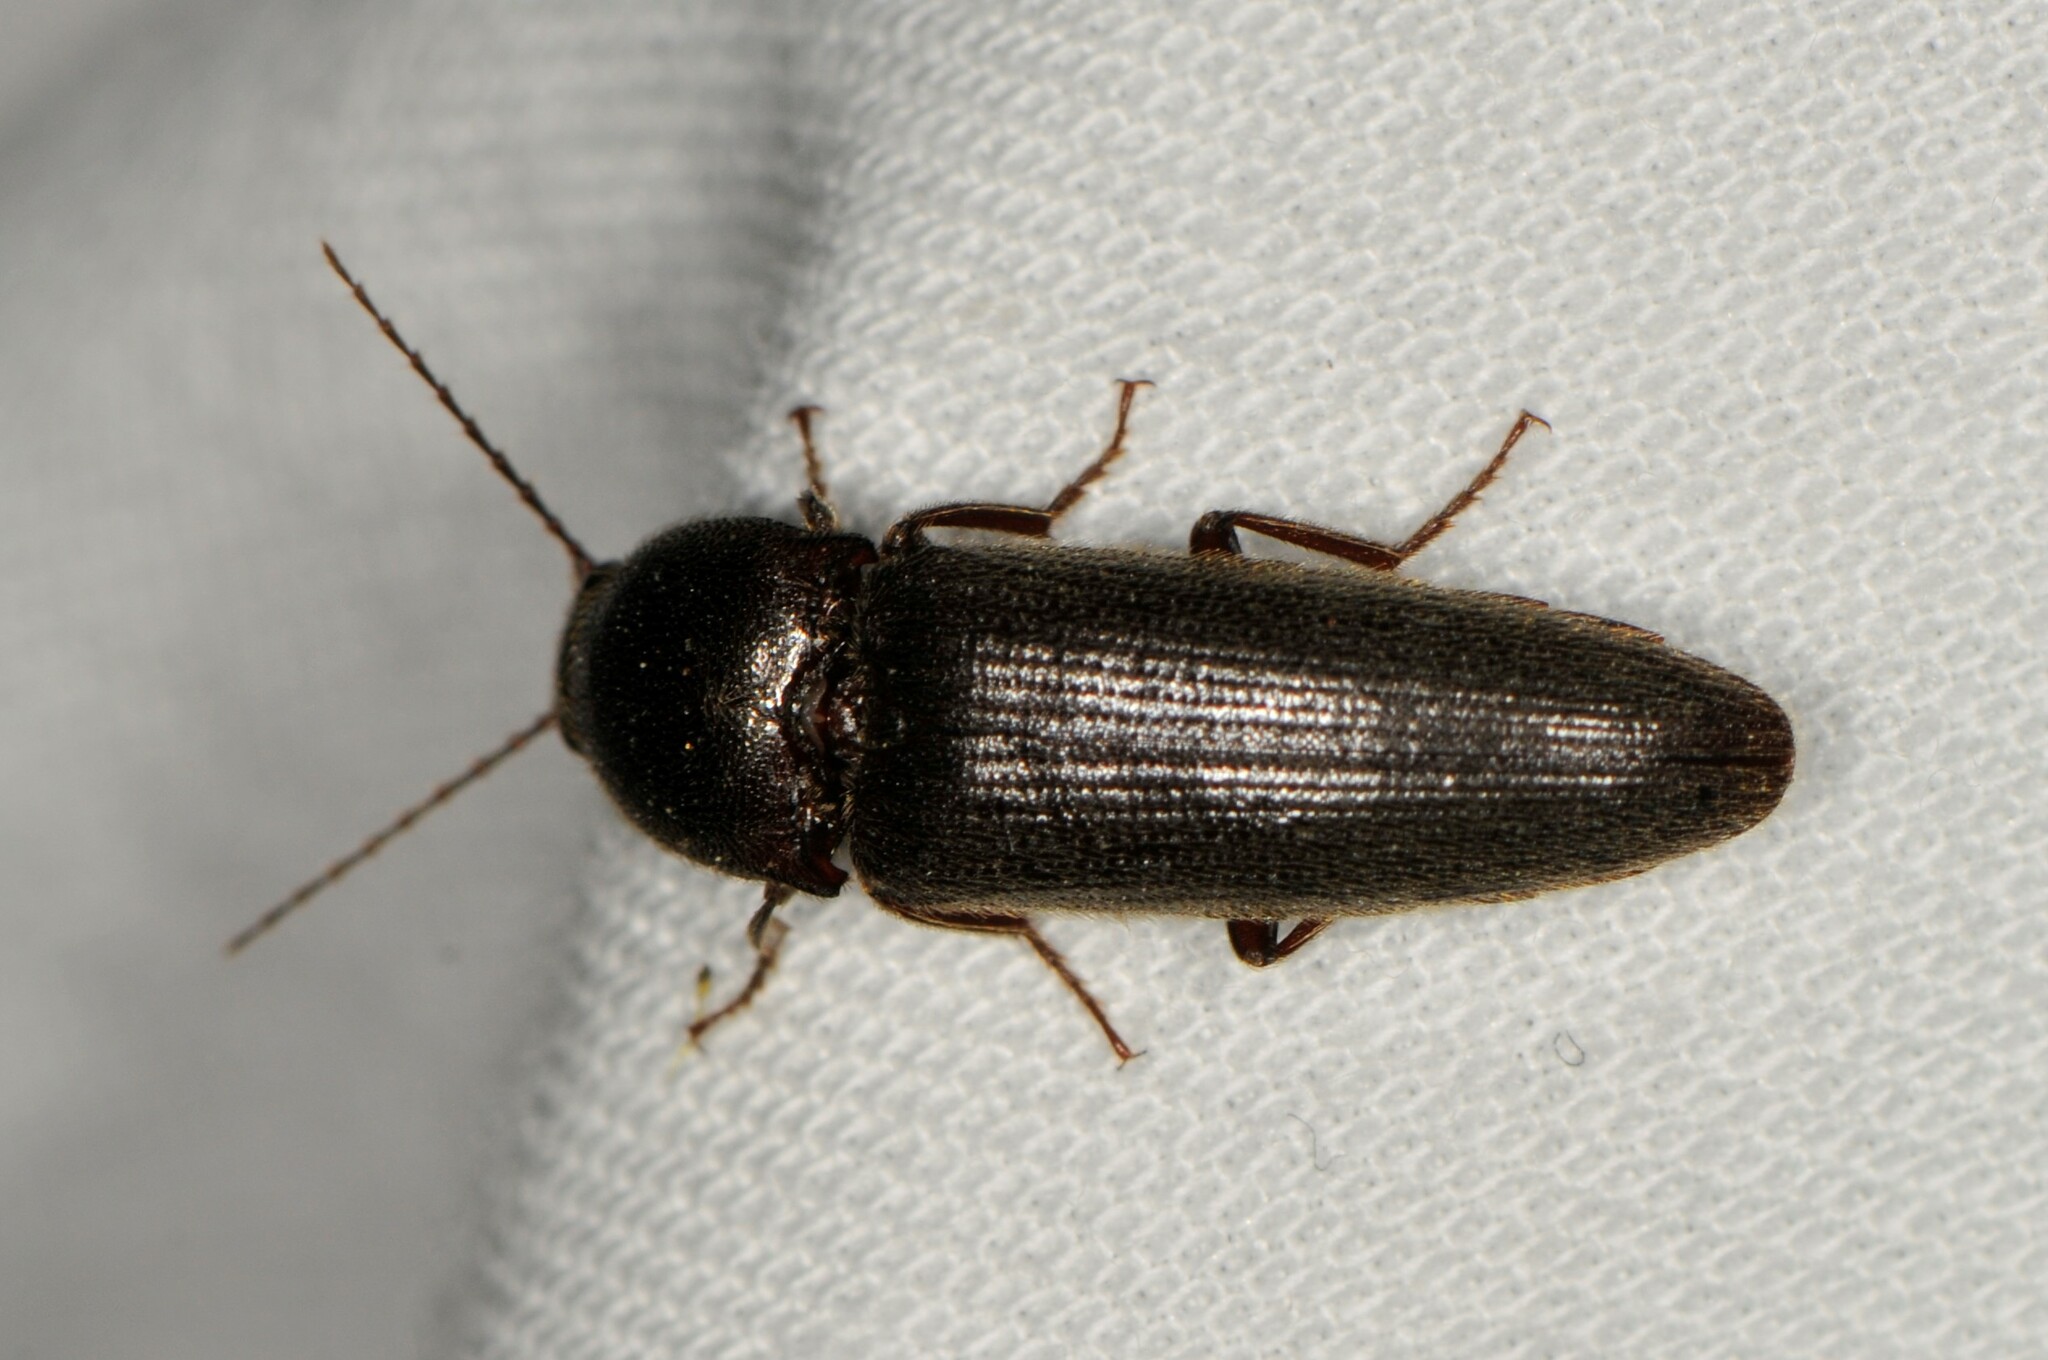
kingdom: Animalia
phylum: Arthropoda
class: Insecta
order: Coleoptera
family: Elateridae
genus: Melanotus
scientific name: Melanotus
